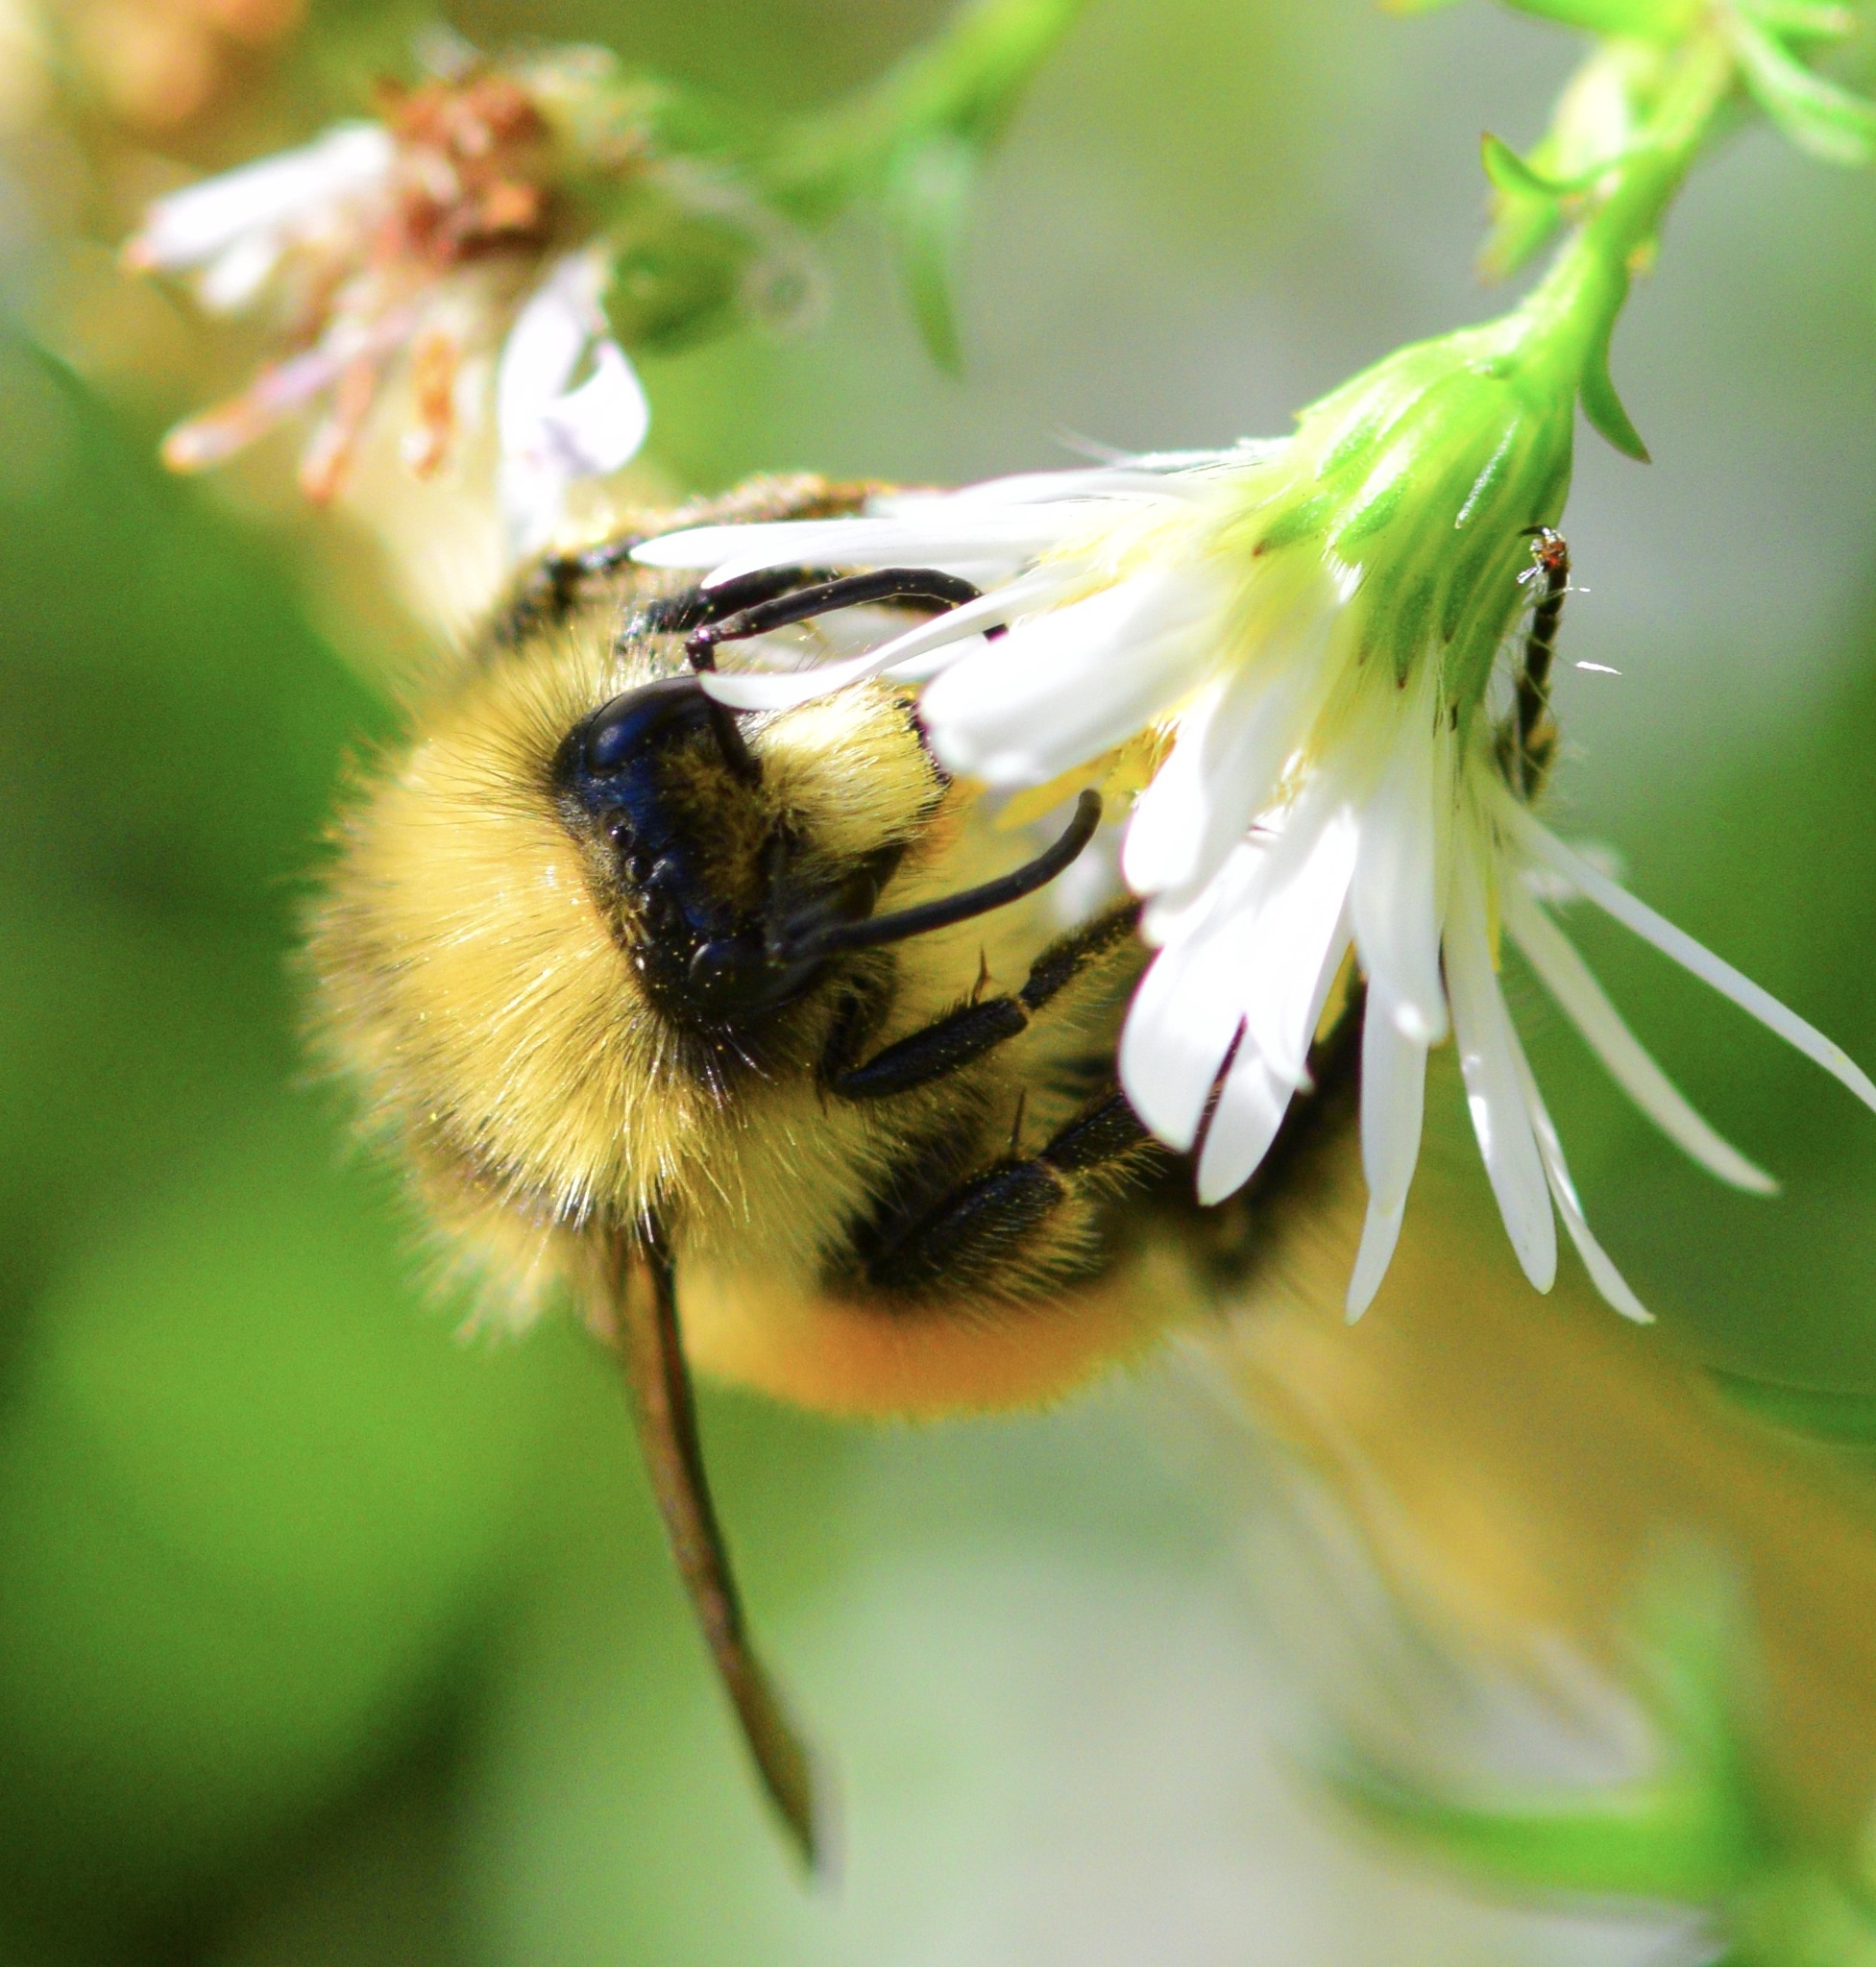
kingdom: Animalia
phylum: Arthropoda
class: Insecta
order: Hymenoptera
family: Apidae
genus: Bombus
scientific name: Bombus ternarius
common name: Tri-colored bumble bee
